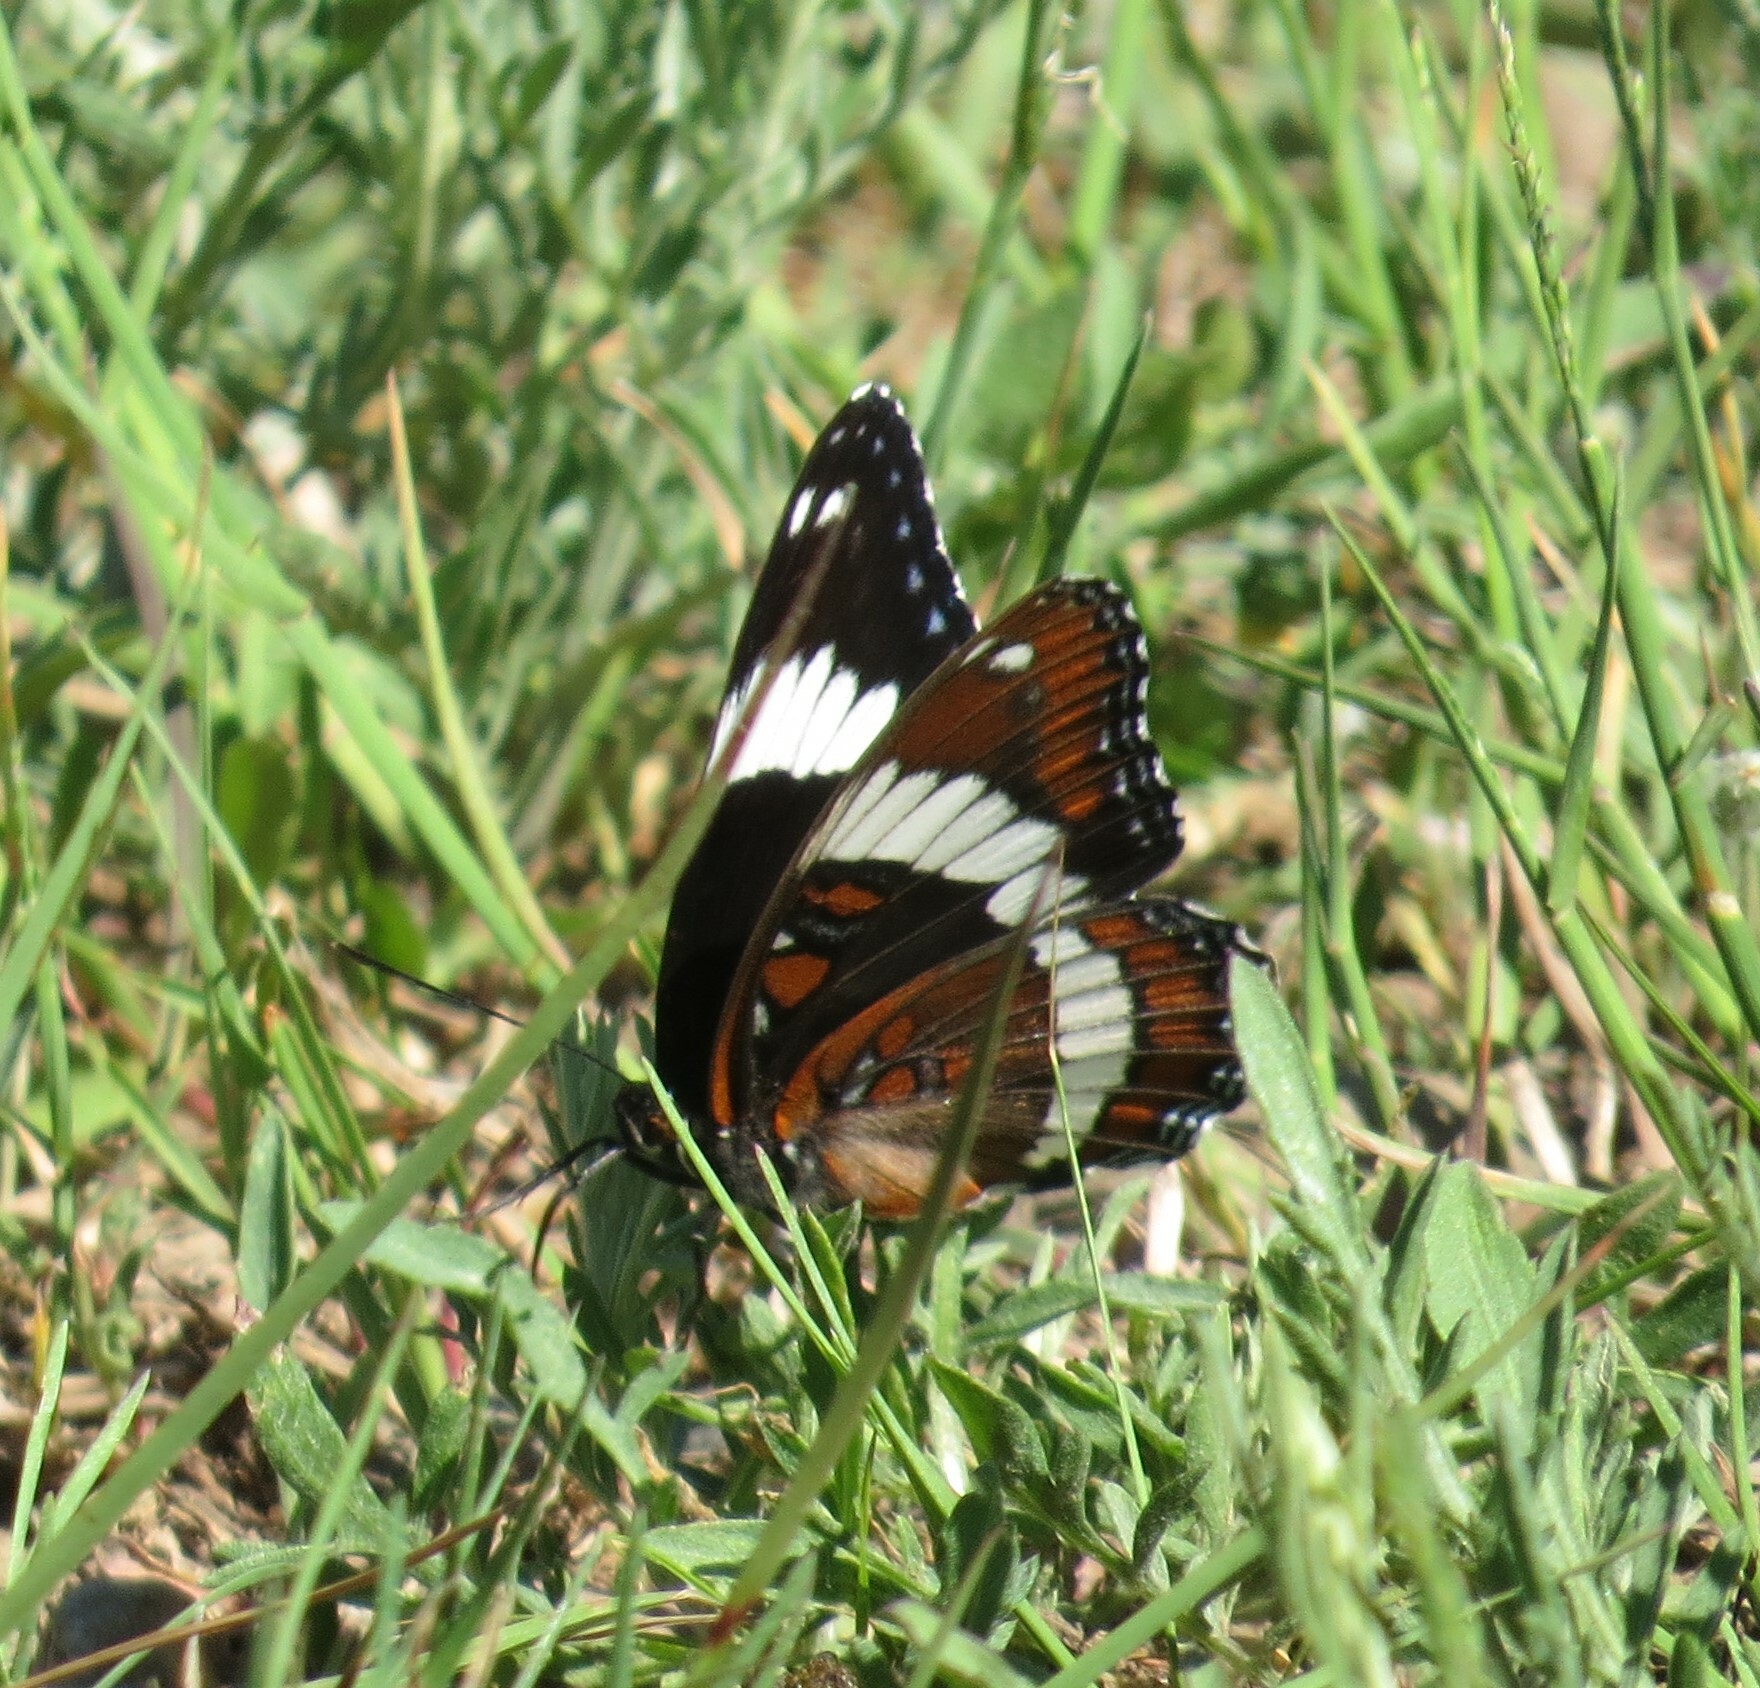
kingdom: Animalia
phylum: Arthropoda
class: Insecta
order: Lepidoptera
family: Nymphalidae
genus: Limenitis
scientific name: Limenitis arthemis
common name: Red-spotted admiral
